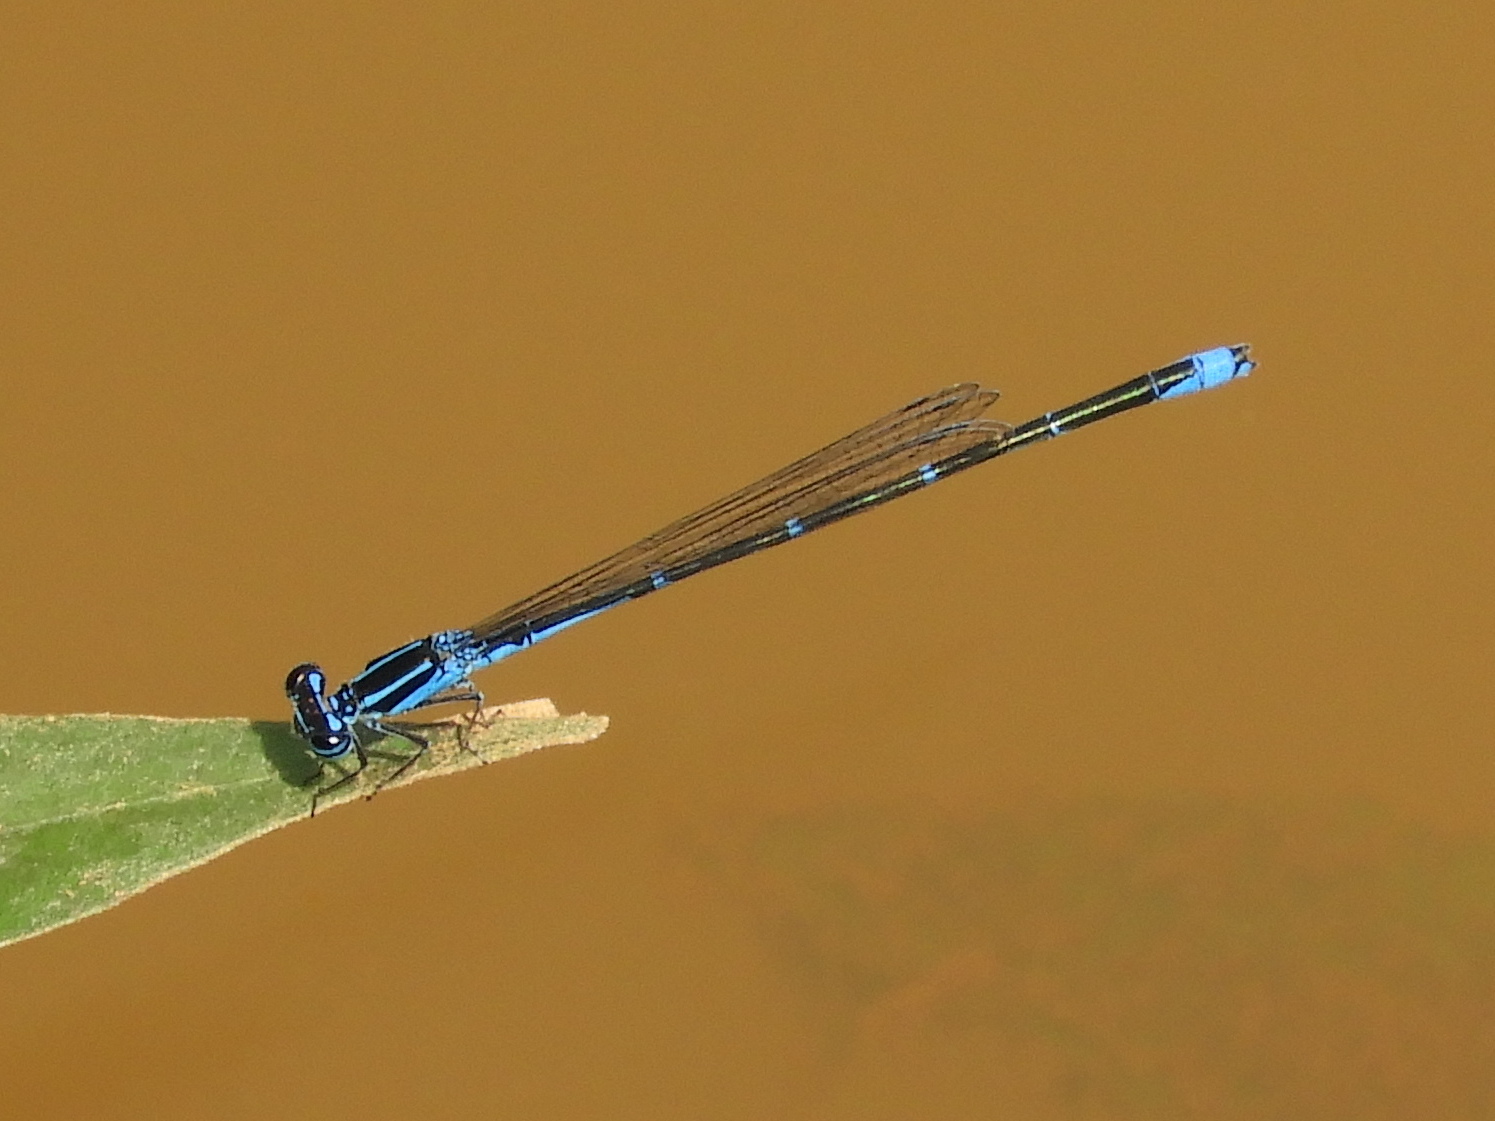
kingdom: Animalia
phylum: Arthropoda
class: Insecta
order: Odonata
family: Coenagrionidae
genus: Enallagma
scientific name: Enallagma exsulans
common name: Stream bluet
